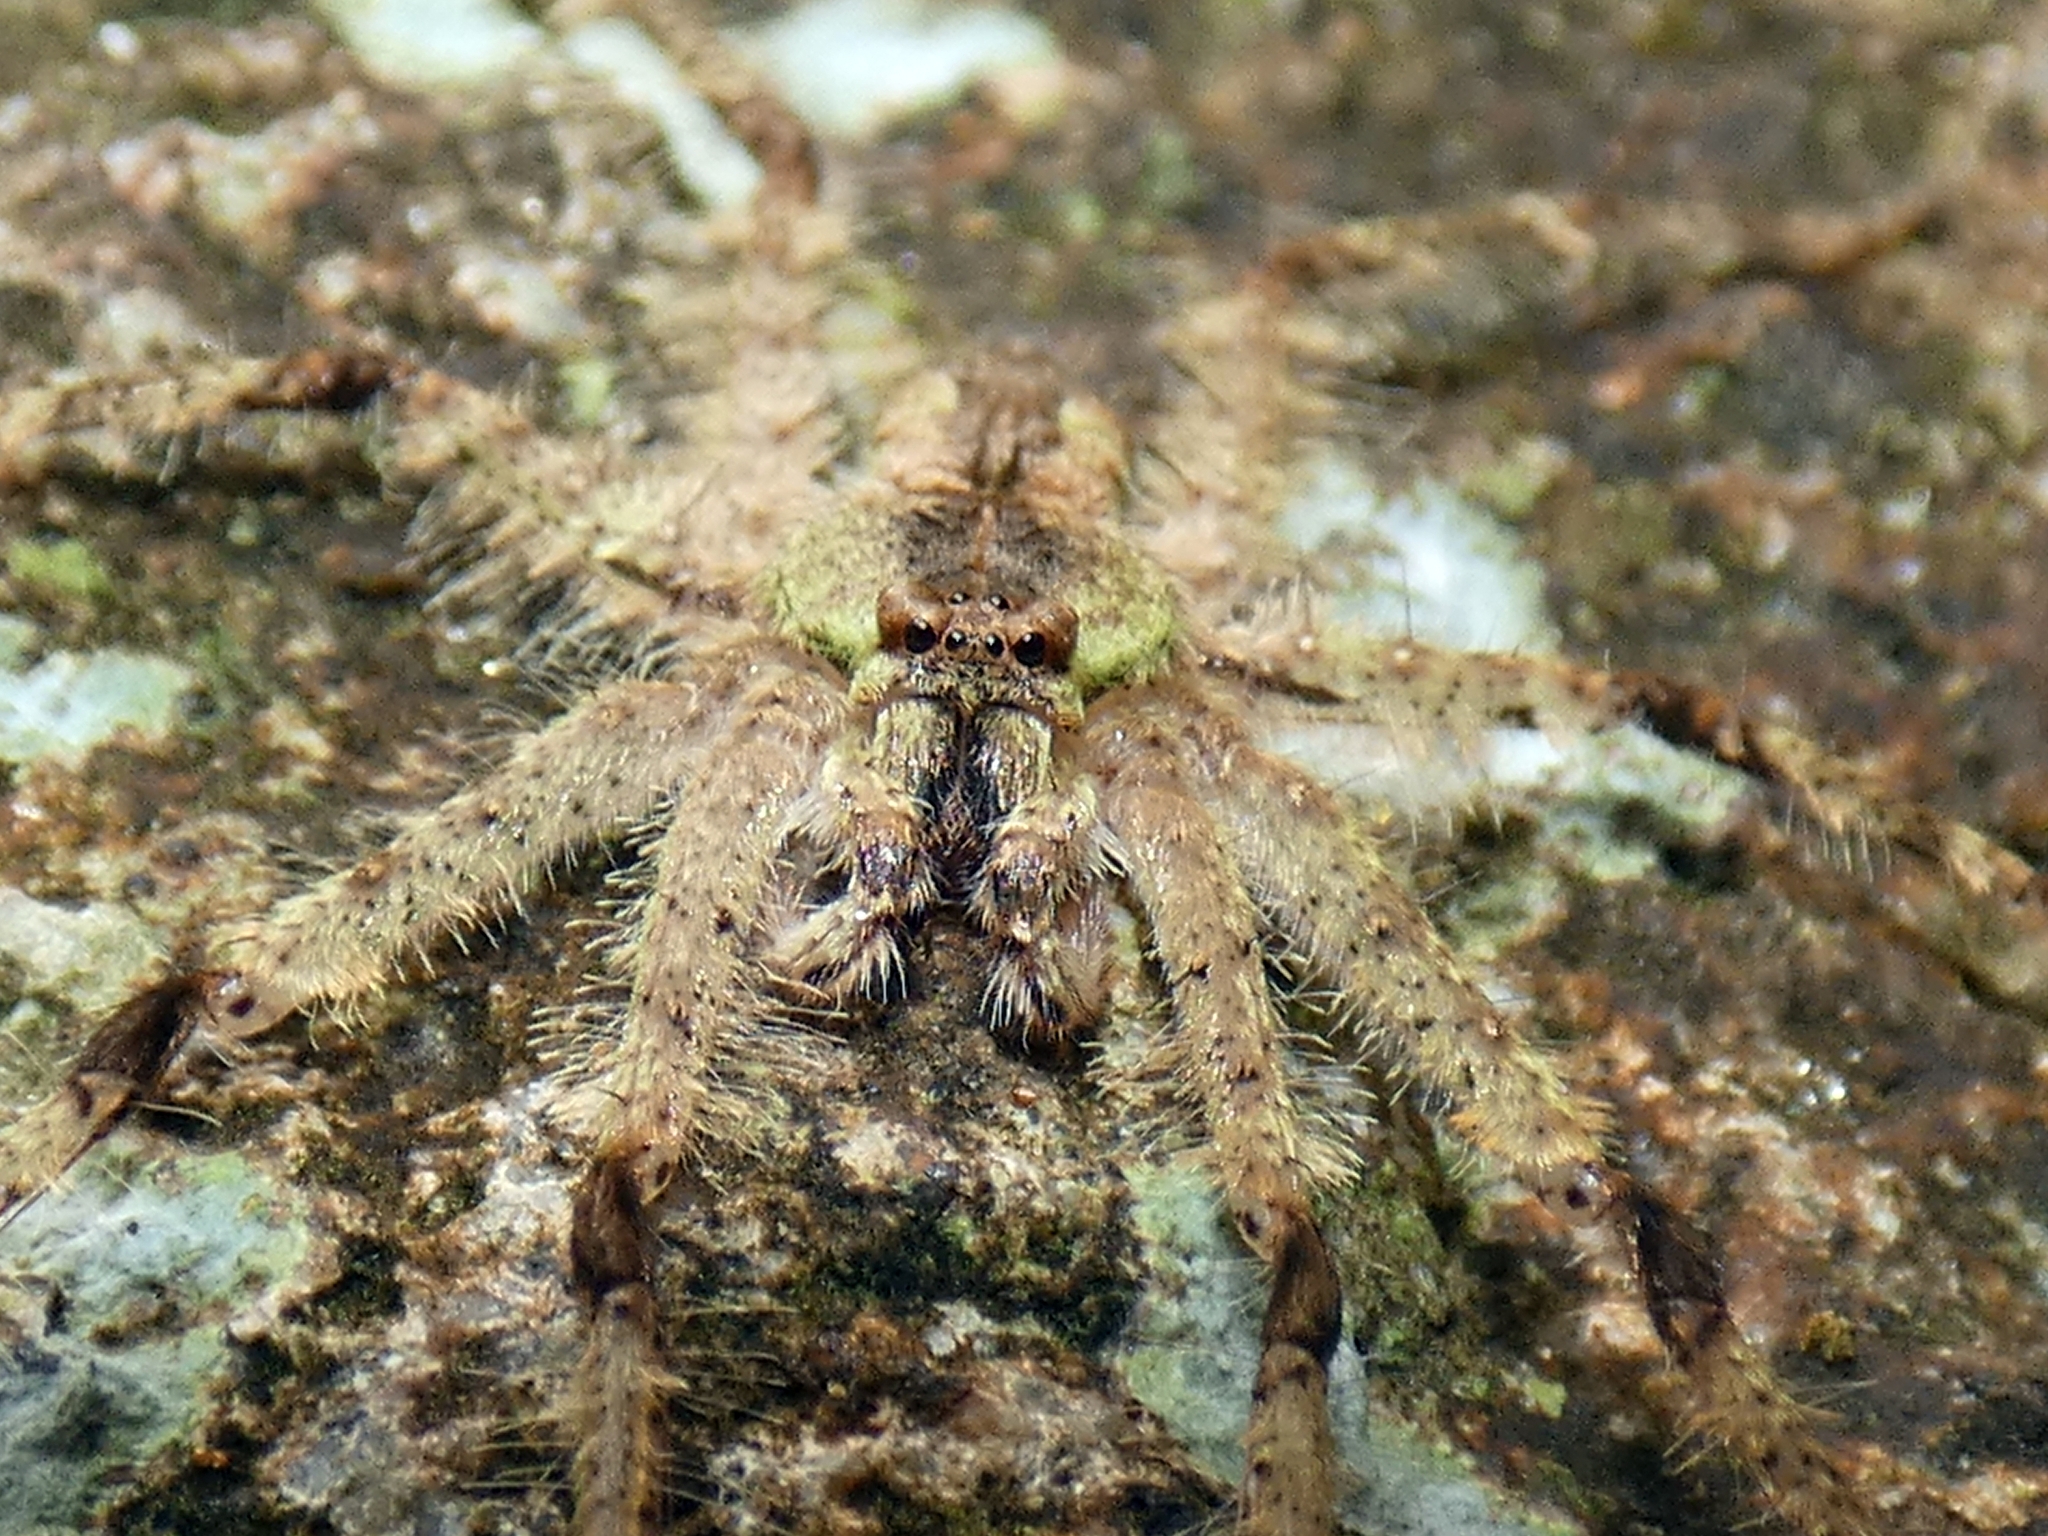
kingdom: Animalia
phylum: Arthropoda
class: Arachnida
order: Araneae
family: Sparassidae
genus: Pandercetes
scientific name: Pandercetes gracilis
